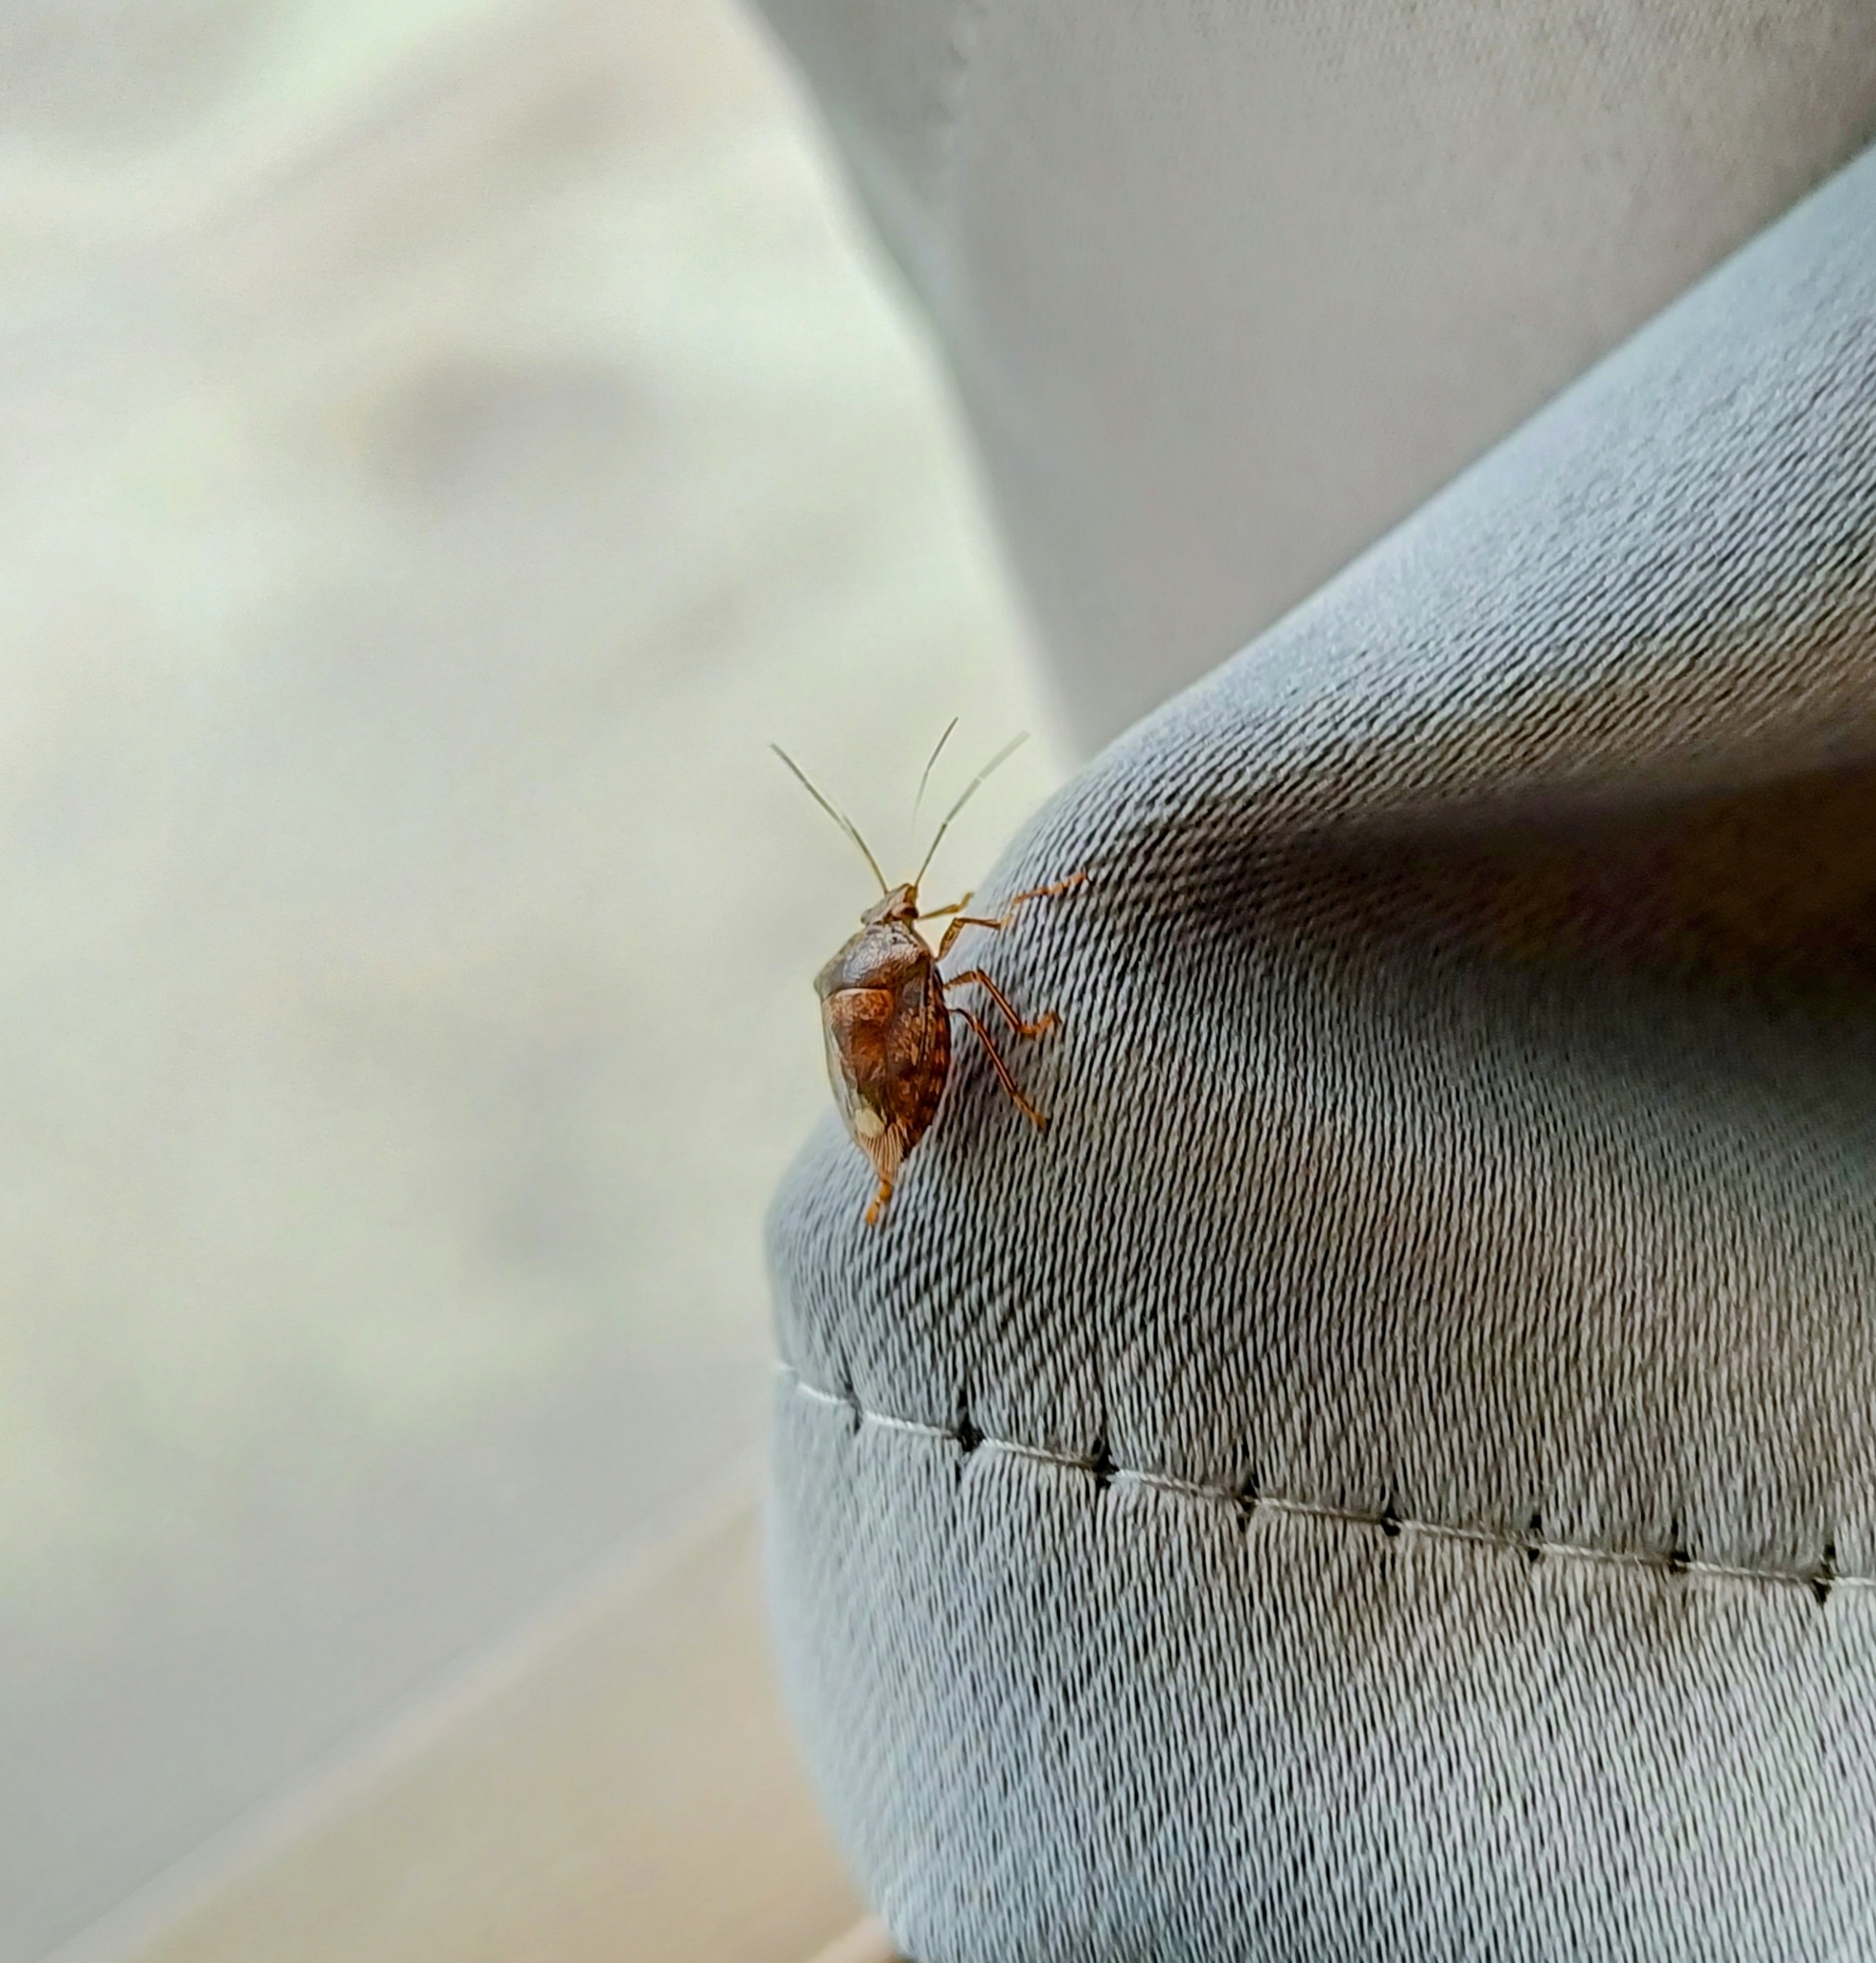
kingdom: Animalia
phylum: Arthropoda
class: Insecta
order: Hemiptera
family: Pentatomidae
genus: Axiagastus
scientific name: Axiagastus
